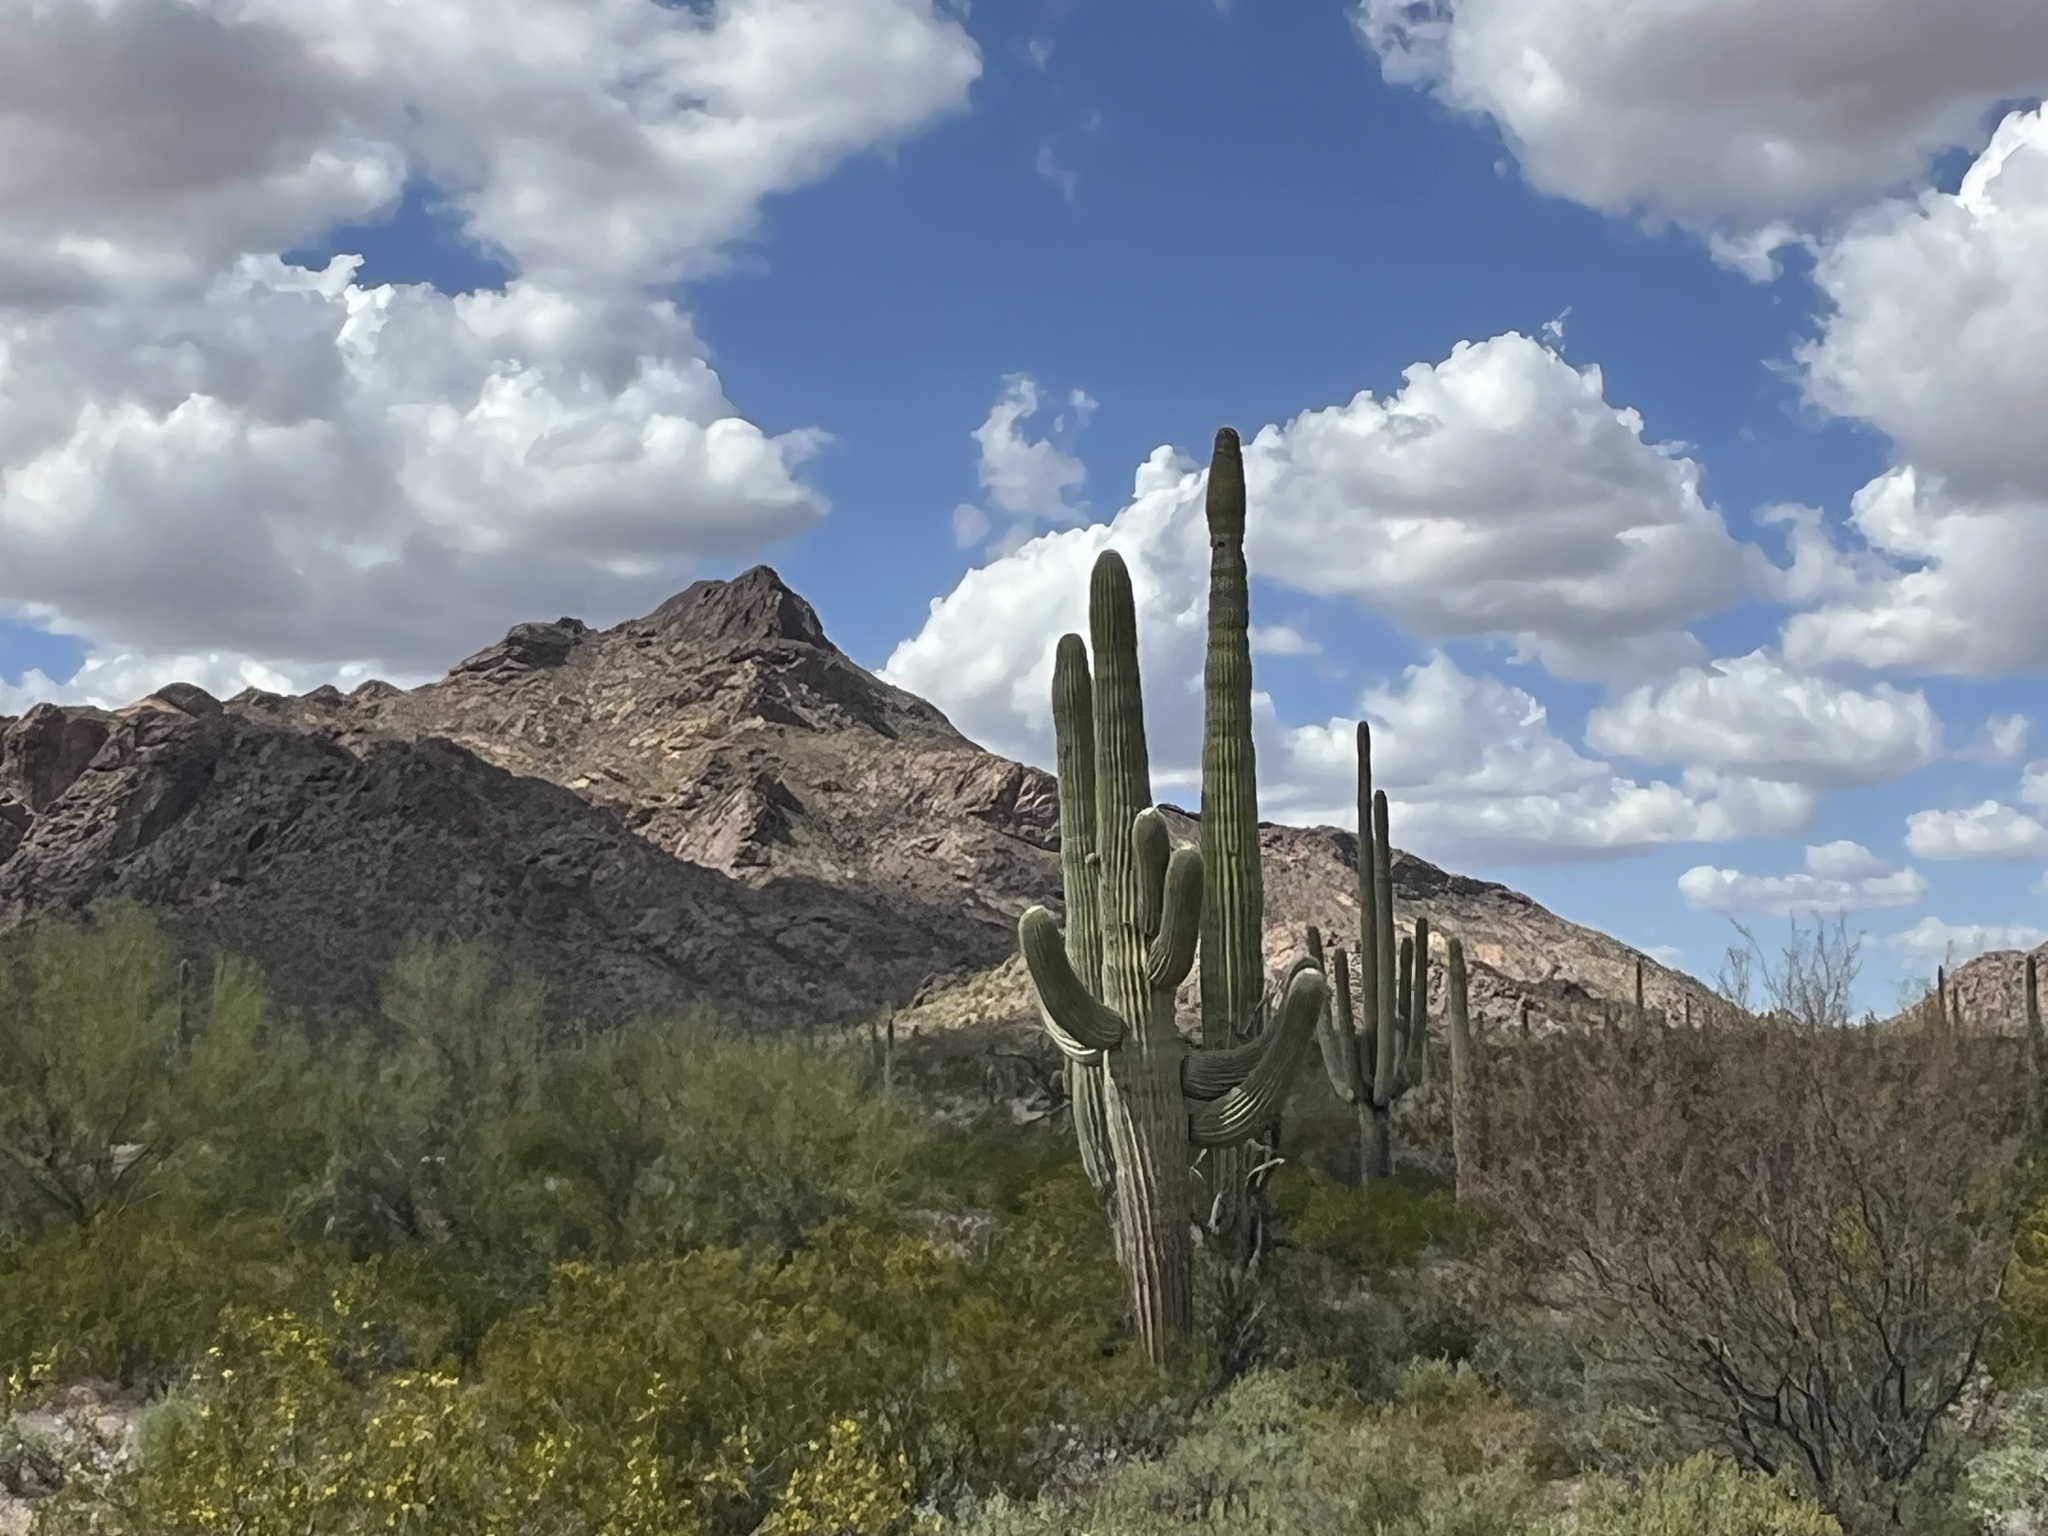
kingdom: Plantae
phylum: Tracheophyta
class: Magnoliopsida
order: Caryophyllales
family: Cactaceae
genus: Carnegiea
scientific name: Carnegiea gigantea
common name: Saguaro
